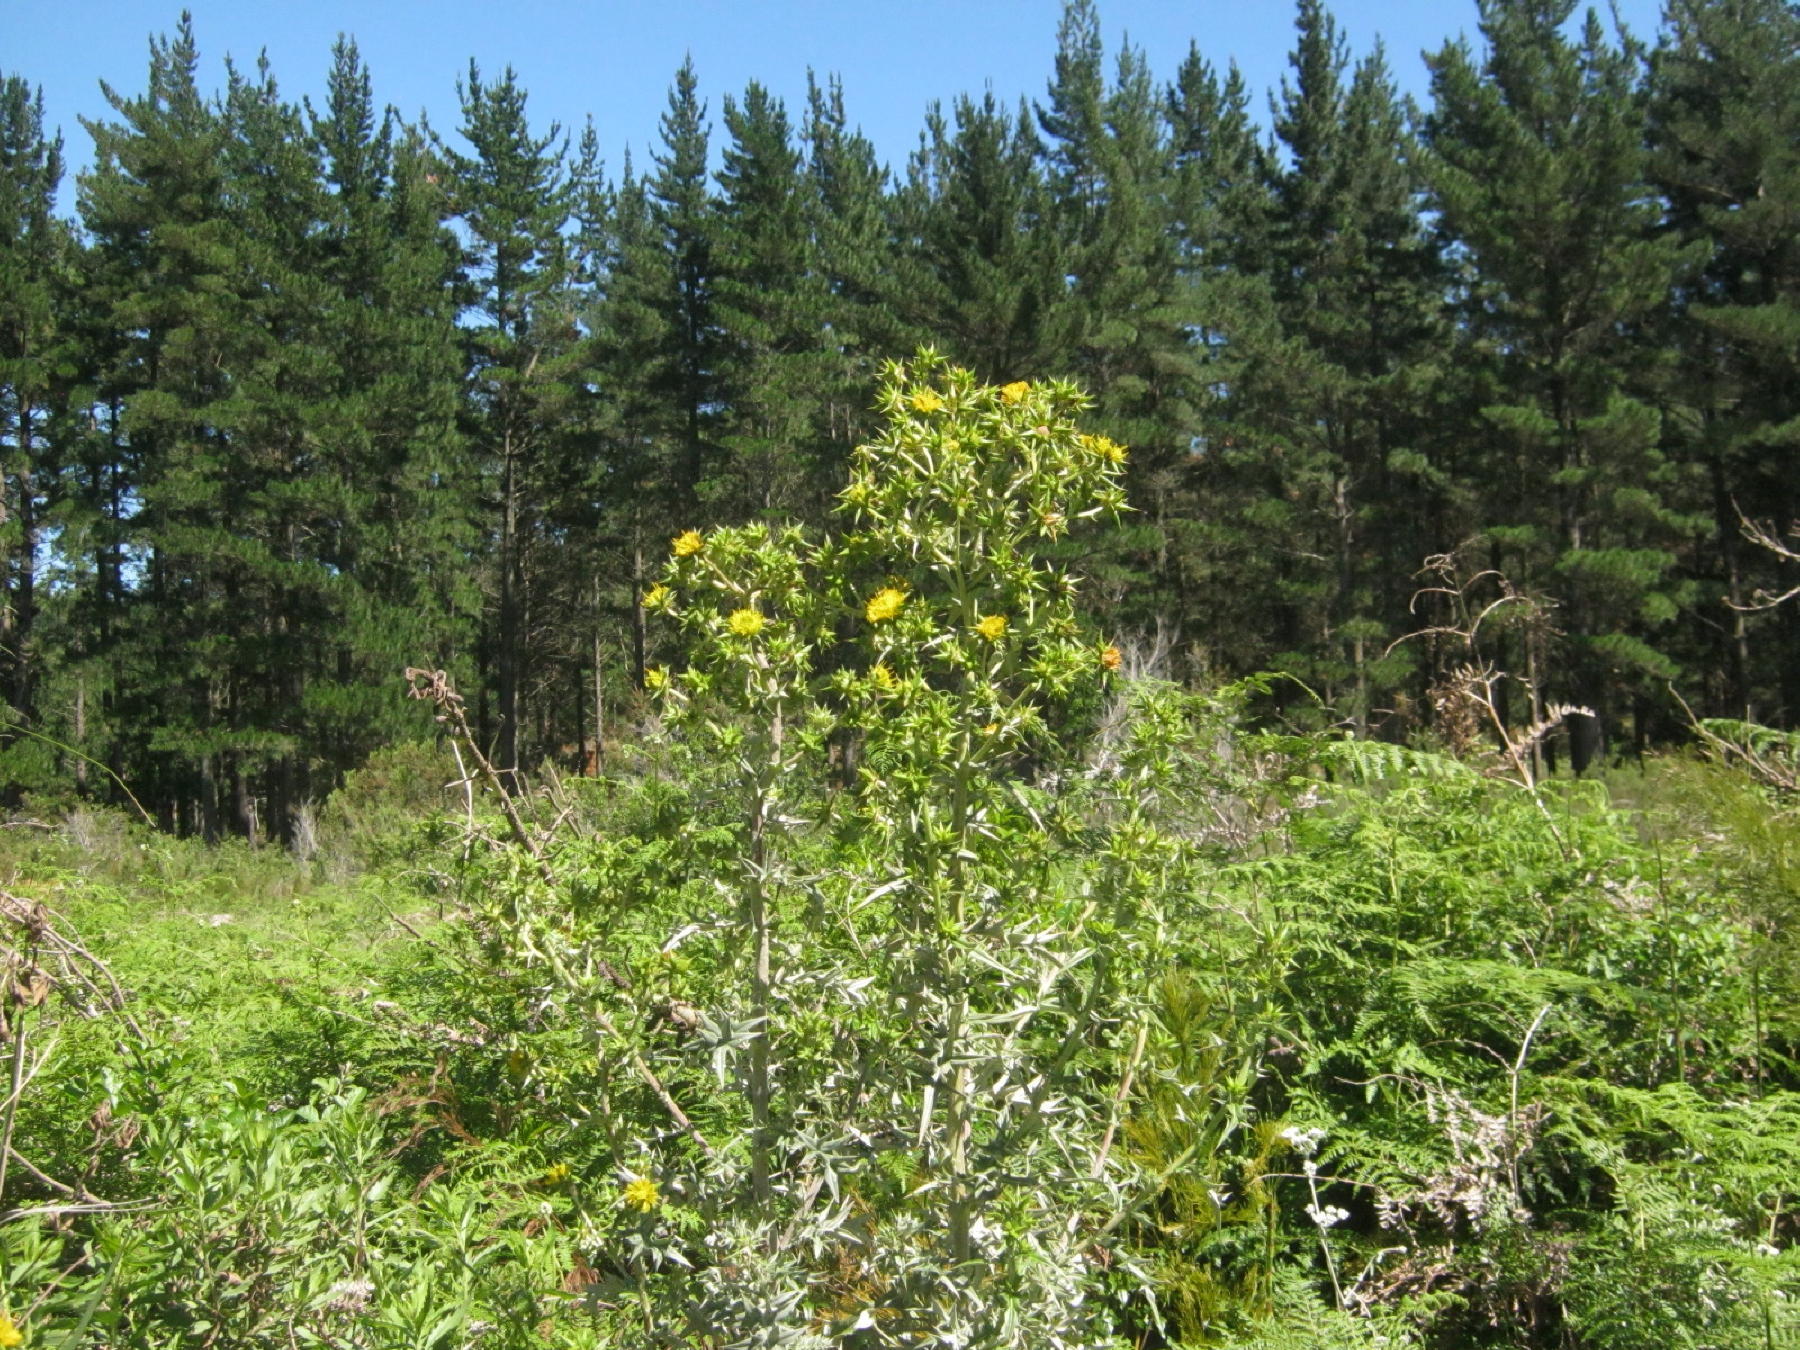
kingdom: Plantae
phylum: Tracheophyta
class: Magnoliopsida
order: Asterales
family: Asteraceae
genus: Berkheya
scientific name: Berkheya rigida
